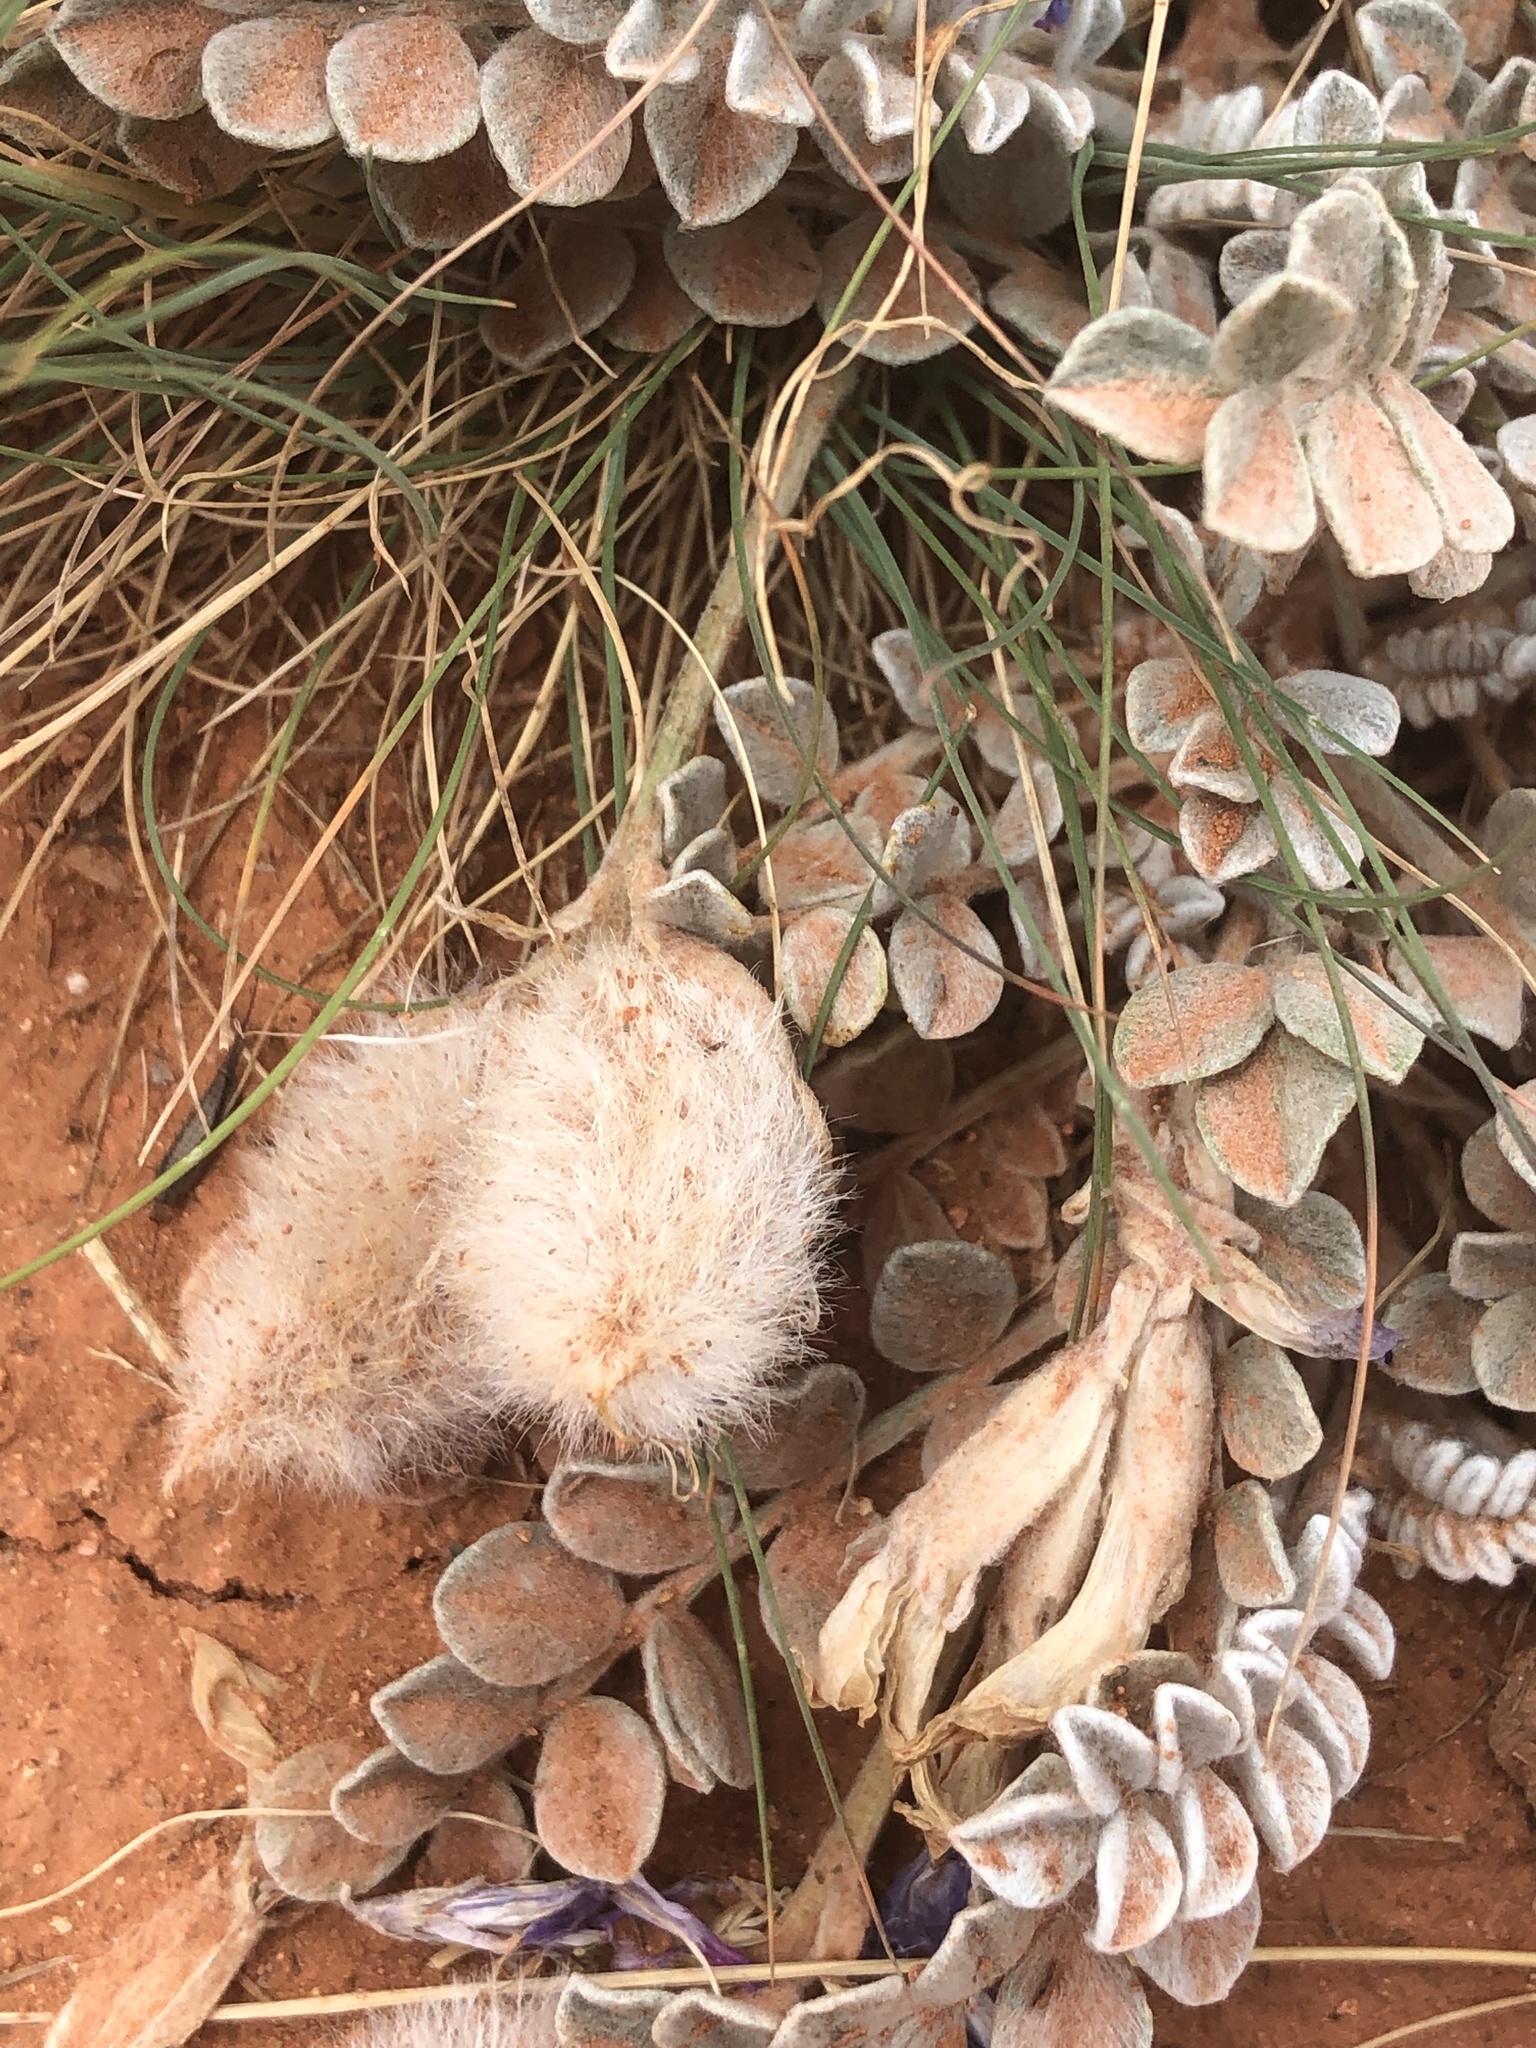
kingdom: Plantae
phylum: Tracheophyta
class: Magnoliopsida
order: Fabales
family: Fabaceae
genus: Astragalus
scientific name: Astragalus utahensis
